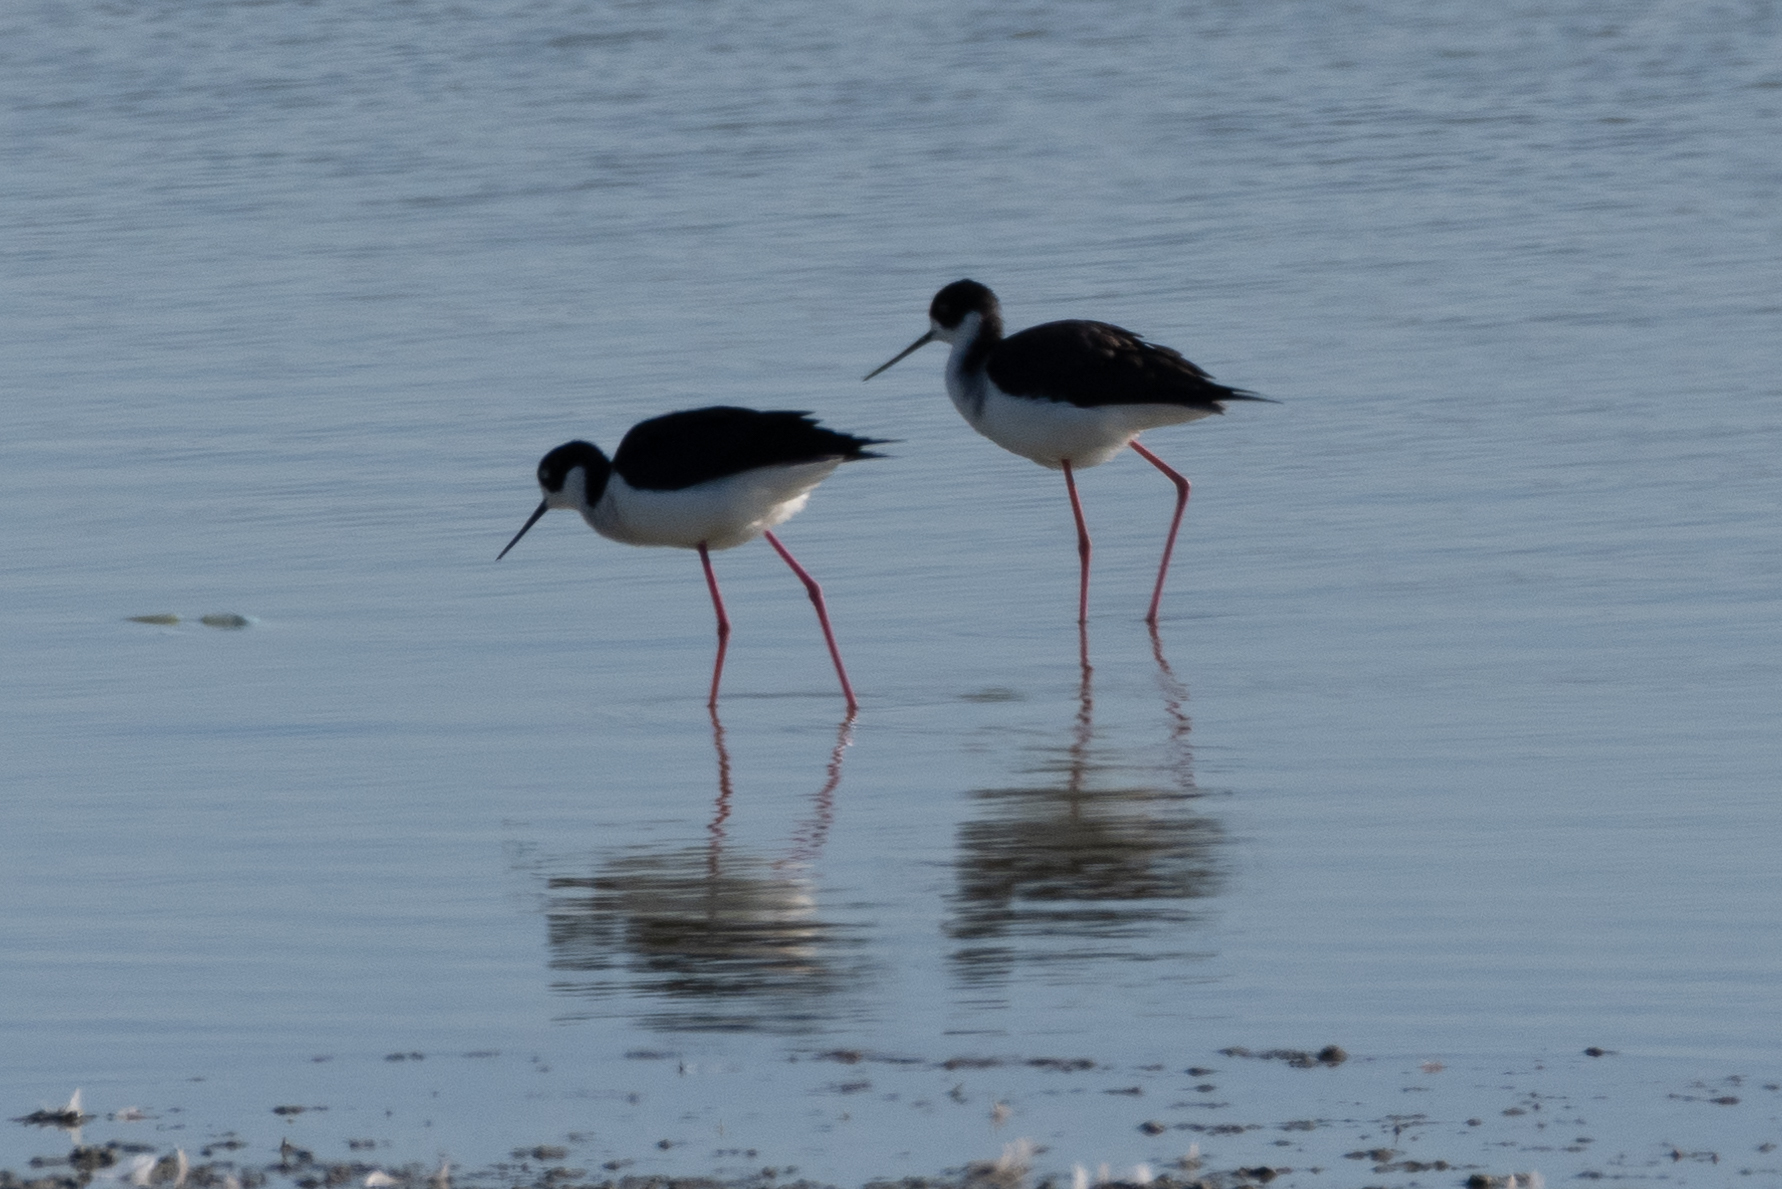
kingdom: Animalia
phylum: Chordata
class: Aves
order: Charadriiformes
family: Recurvirostridae
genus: Himantopus
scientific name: Himantopus mexicanus
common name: Black-necked stilt
